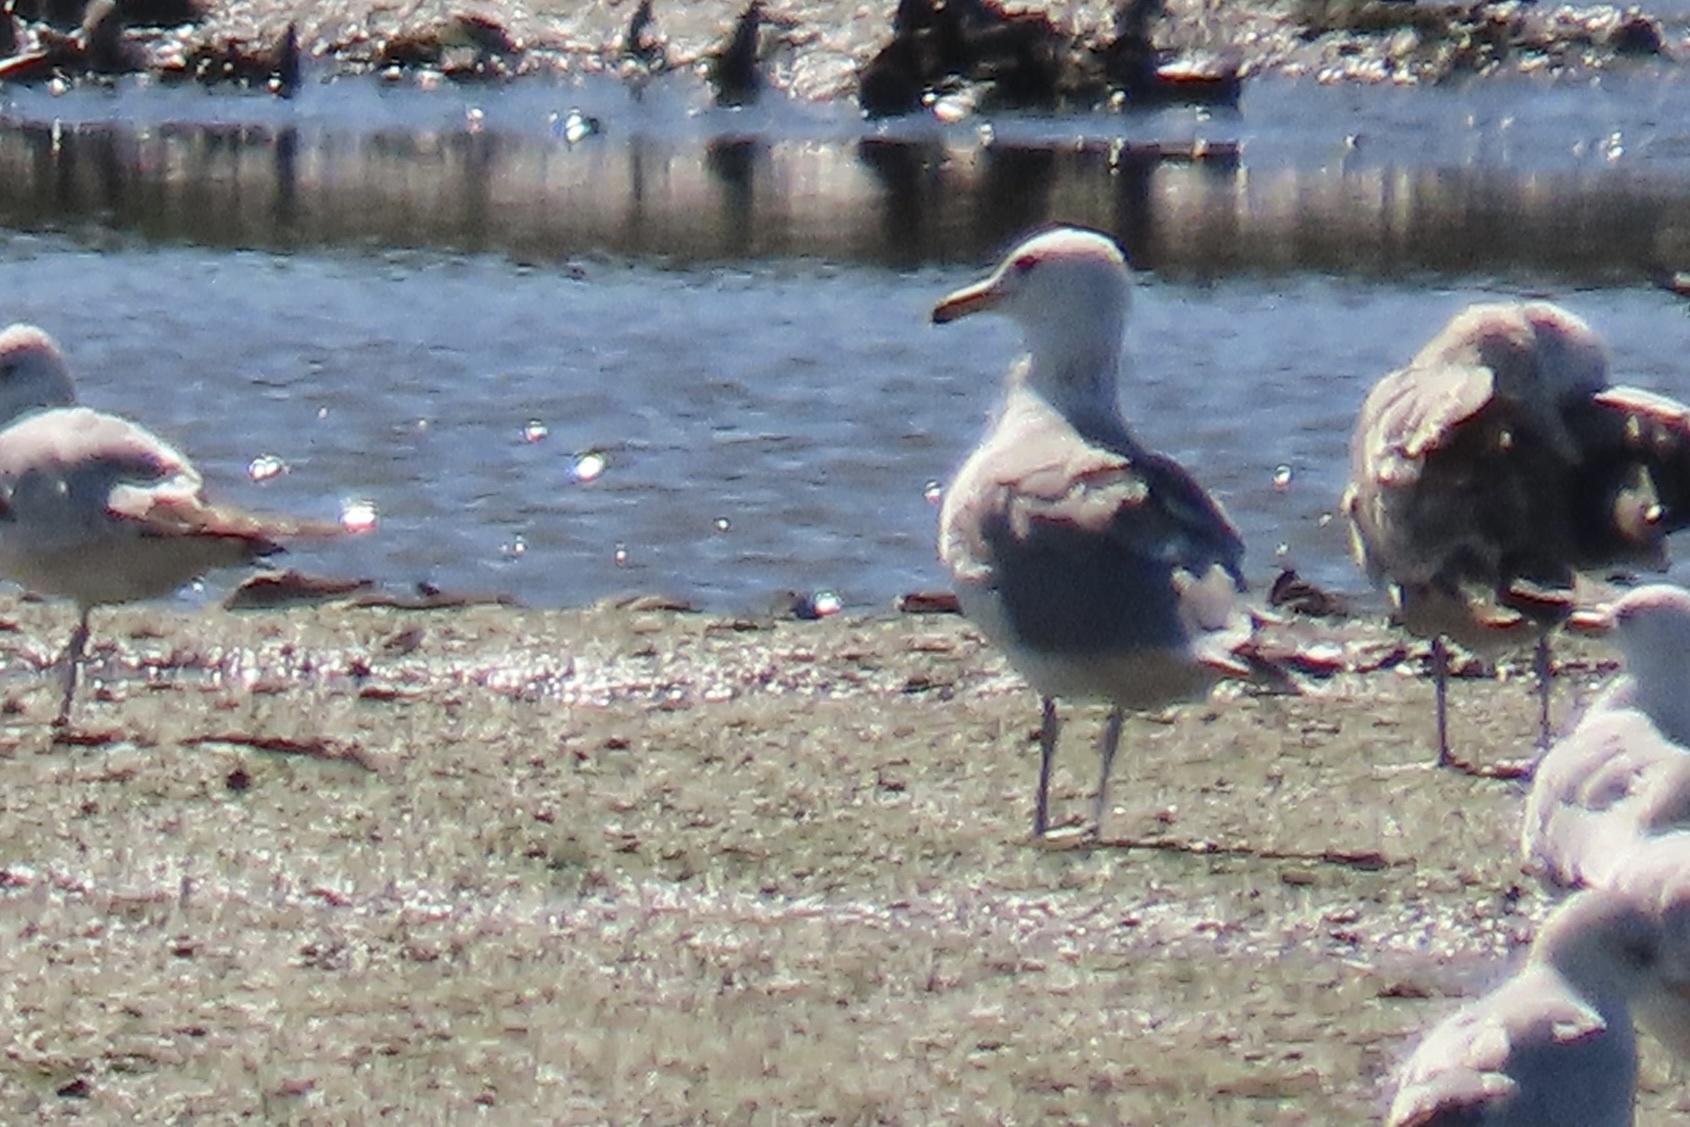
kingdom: Animalia
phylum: Chordata
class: Aves
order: Charadriiformes
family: Laridae
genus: Larus
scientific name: Larus californicus
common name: California gull
